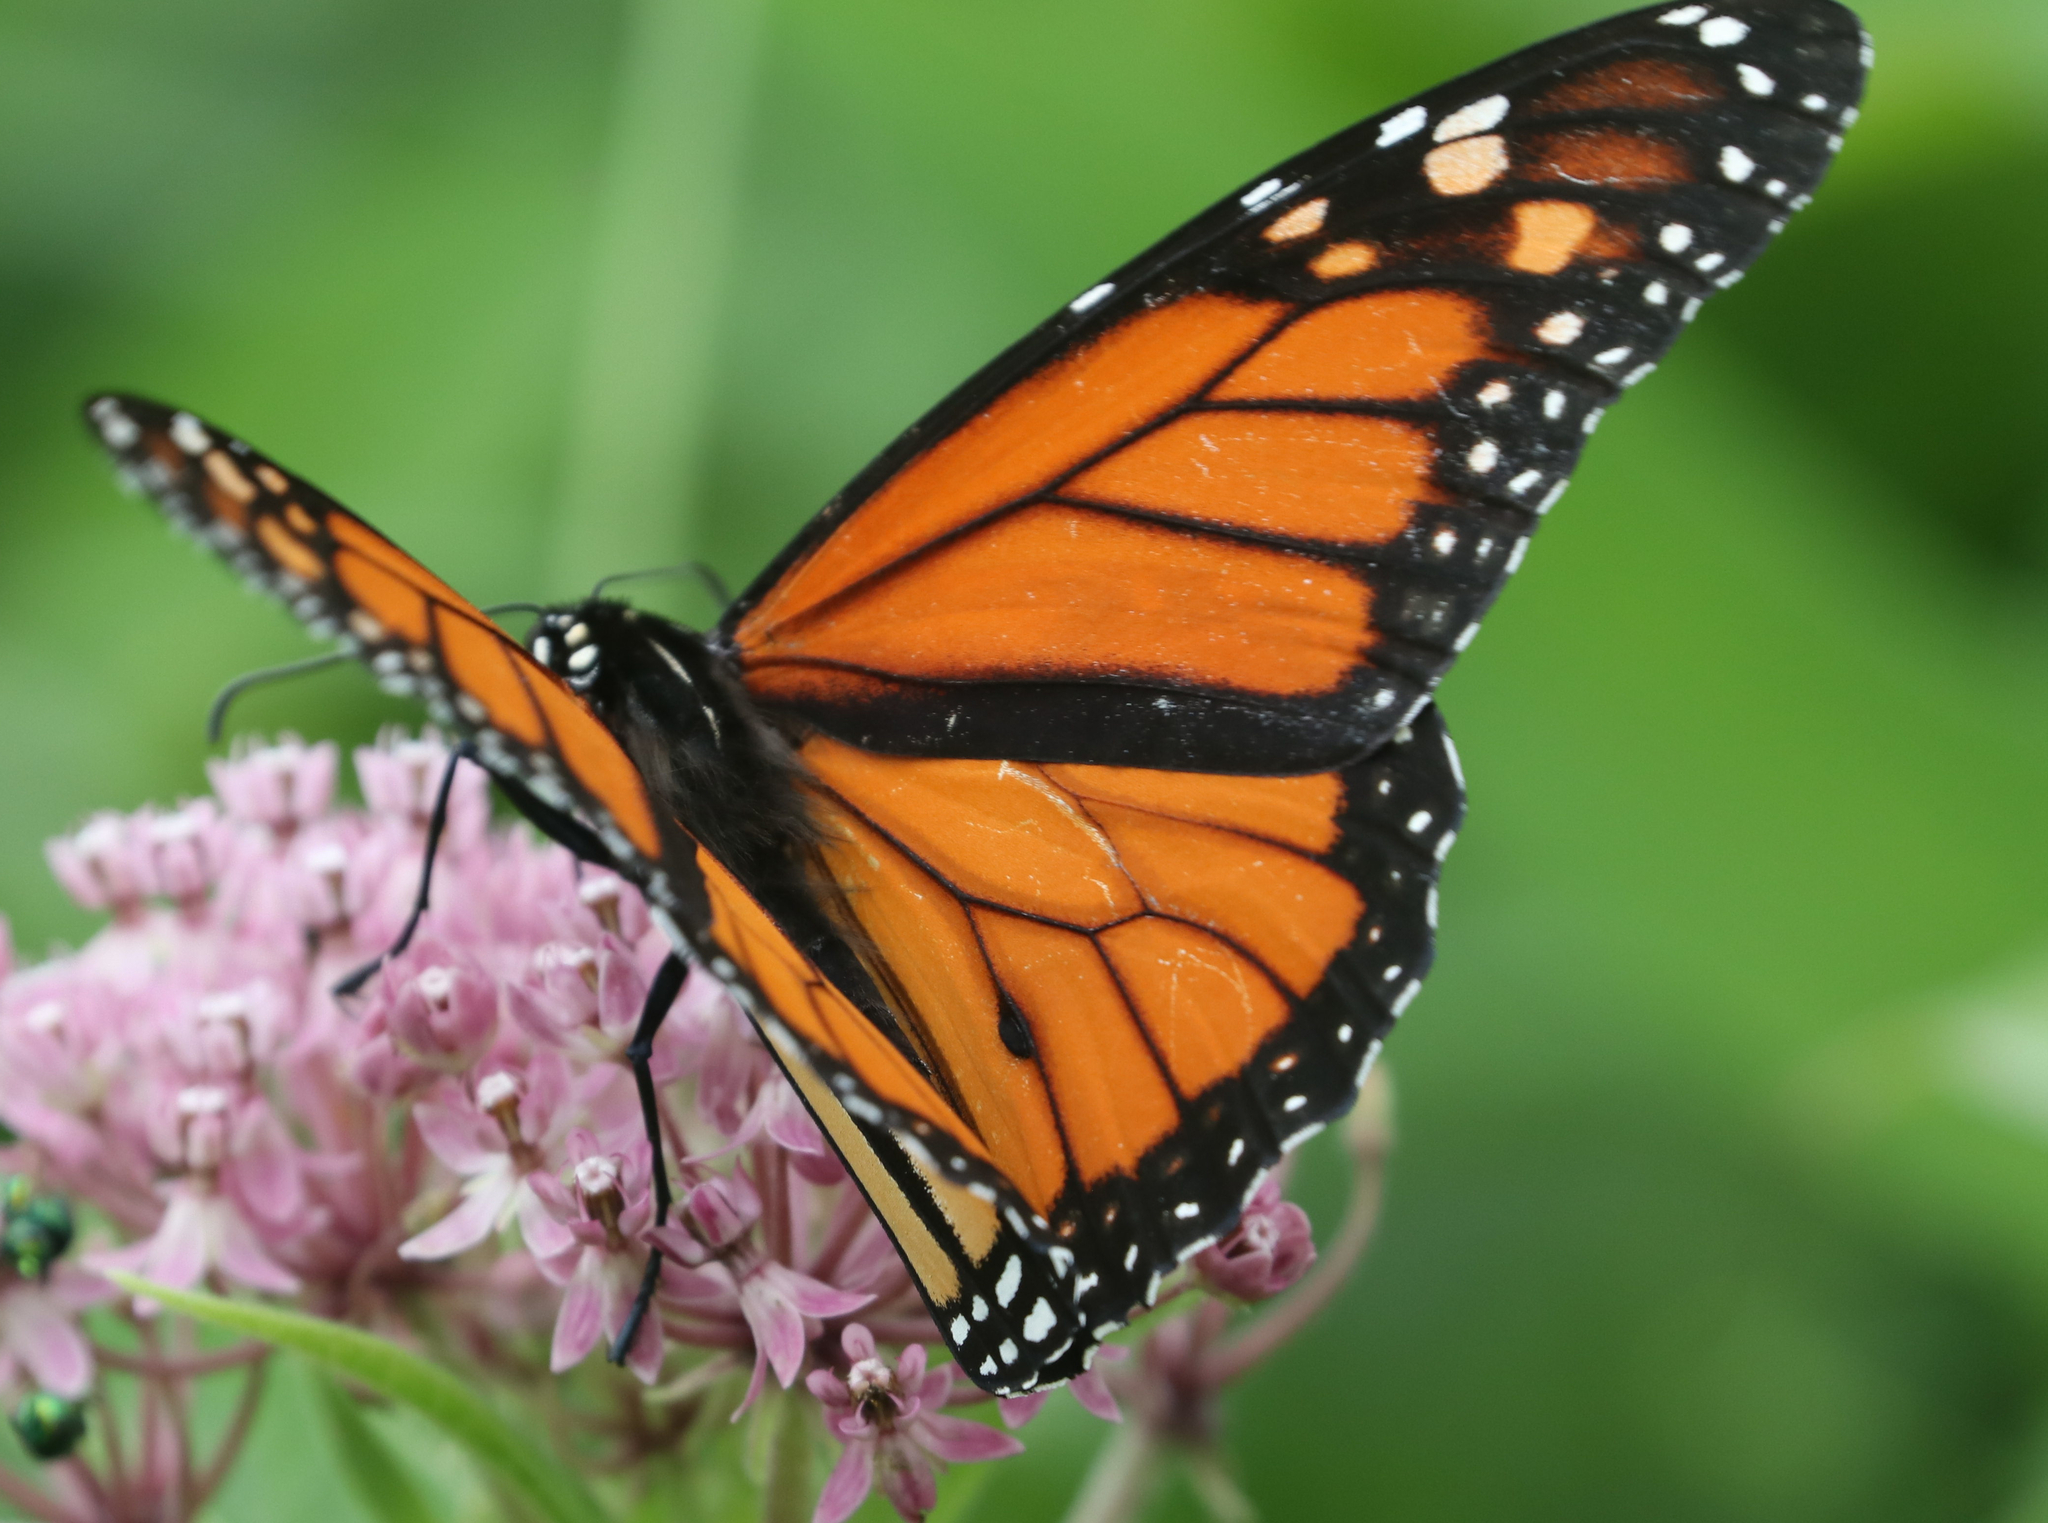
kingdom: Animalia
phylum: Arthropoda
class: Insecta
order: Lepidoptera
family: Nymphalidae
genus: Danaus
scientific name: Danaus plexippus
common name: Monarch
